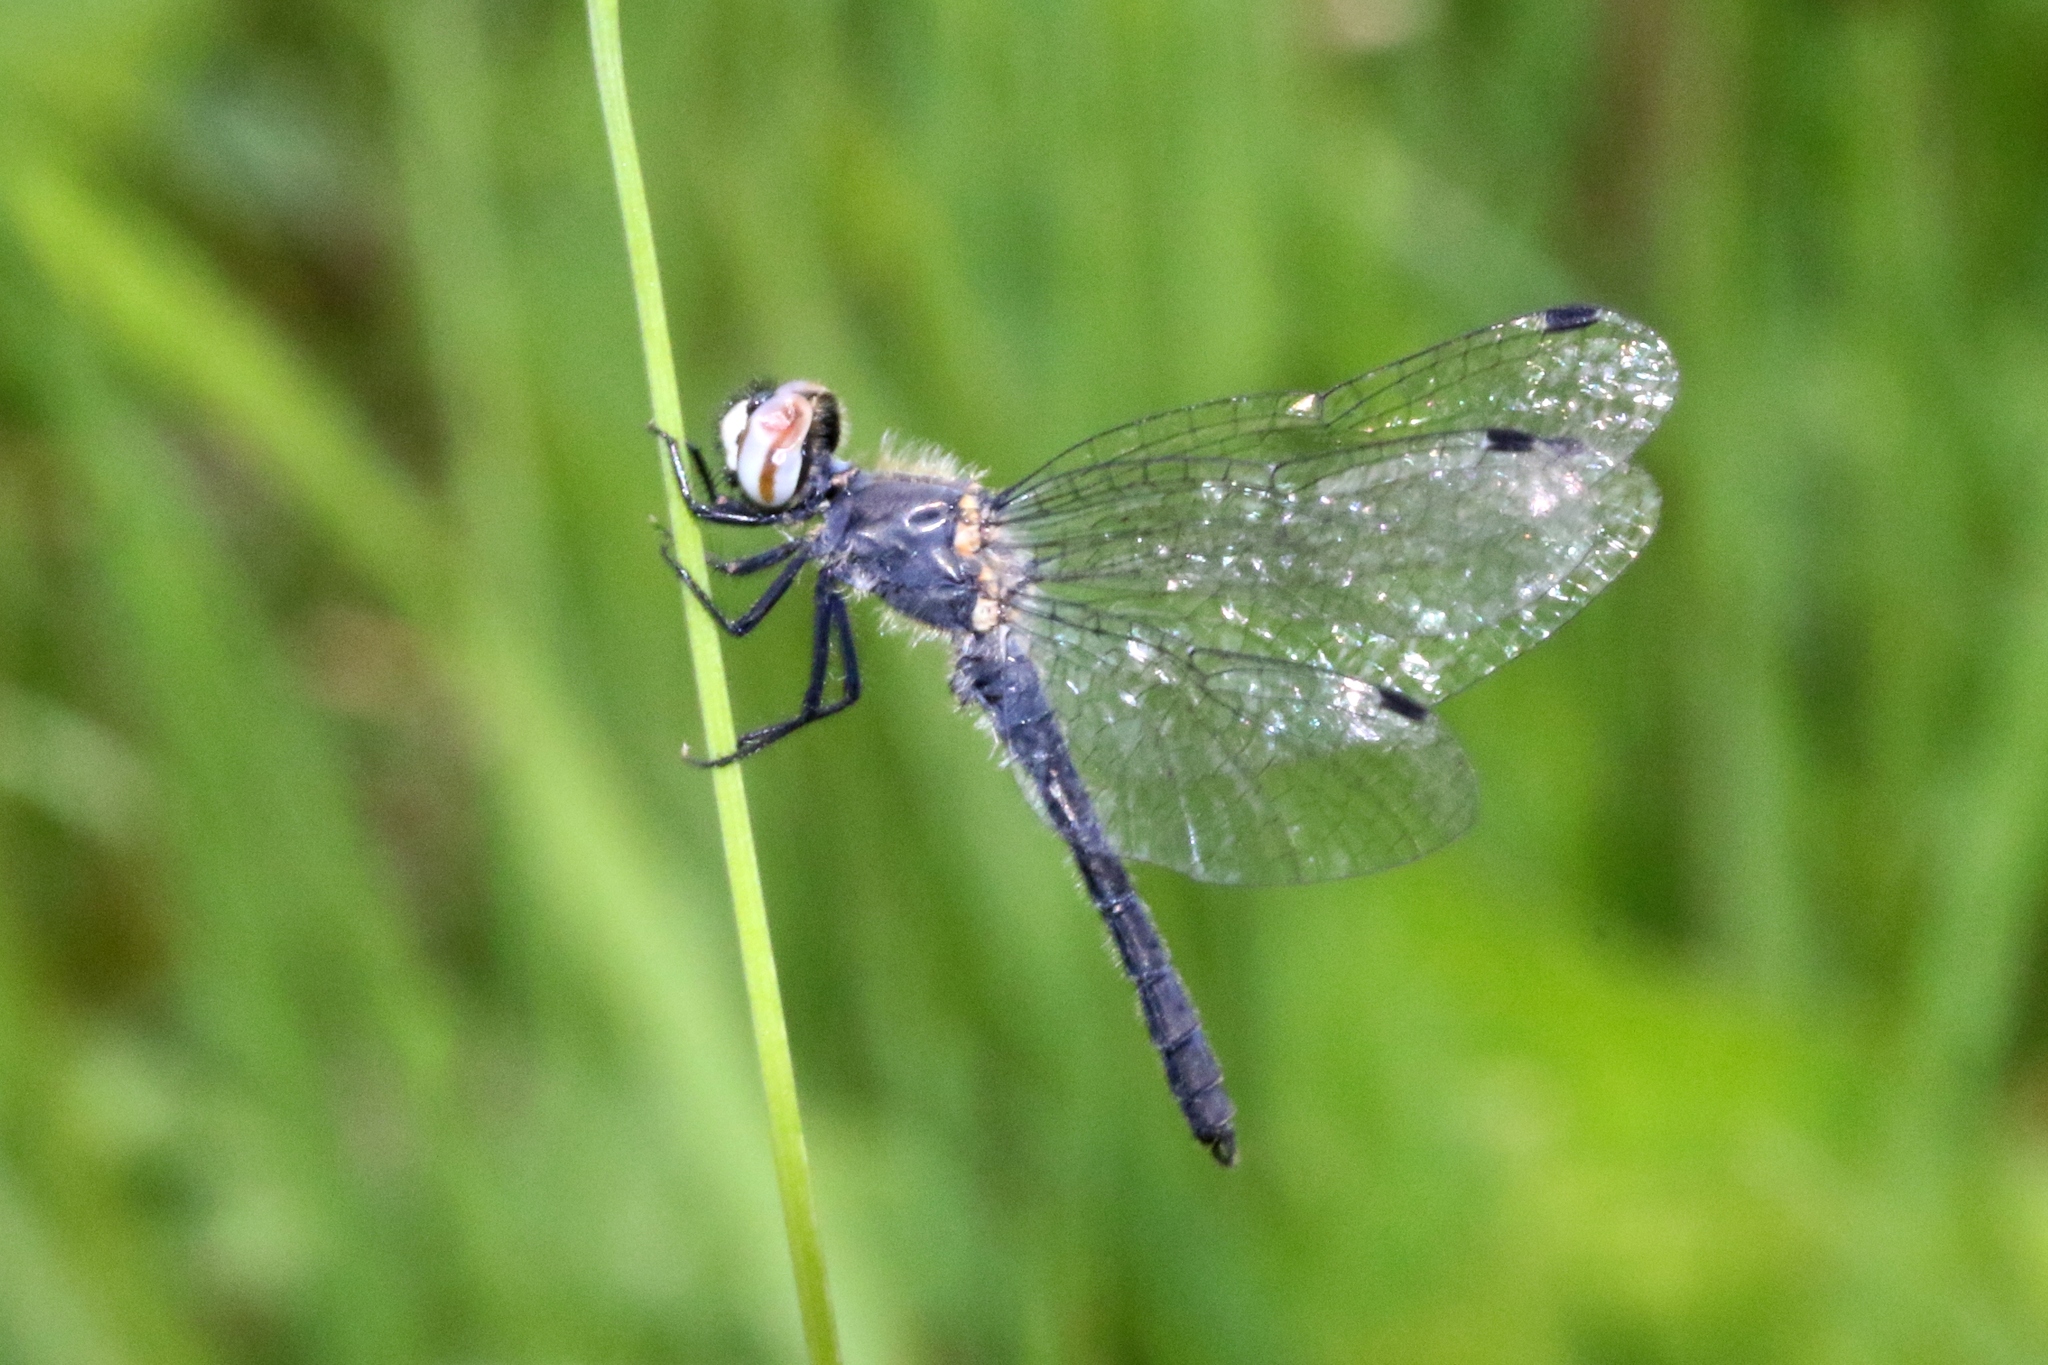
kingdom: Animalia
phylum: Arthropoda
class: Insecta
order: Odonata
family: Libellulidae
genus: Nannothemis
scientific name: Nannothemis bella
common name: Elfin skimmer
